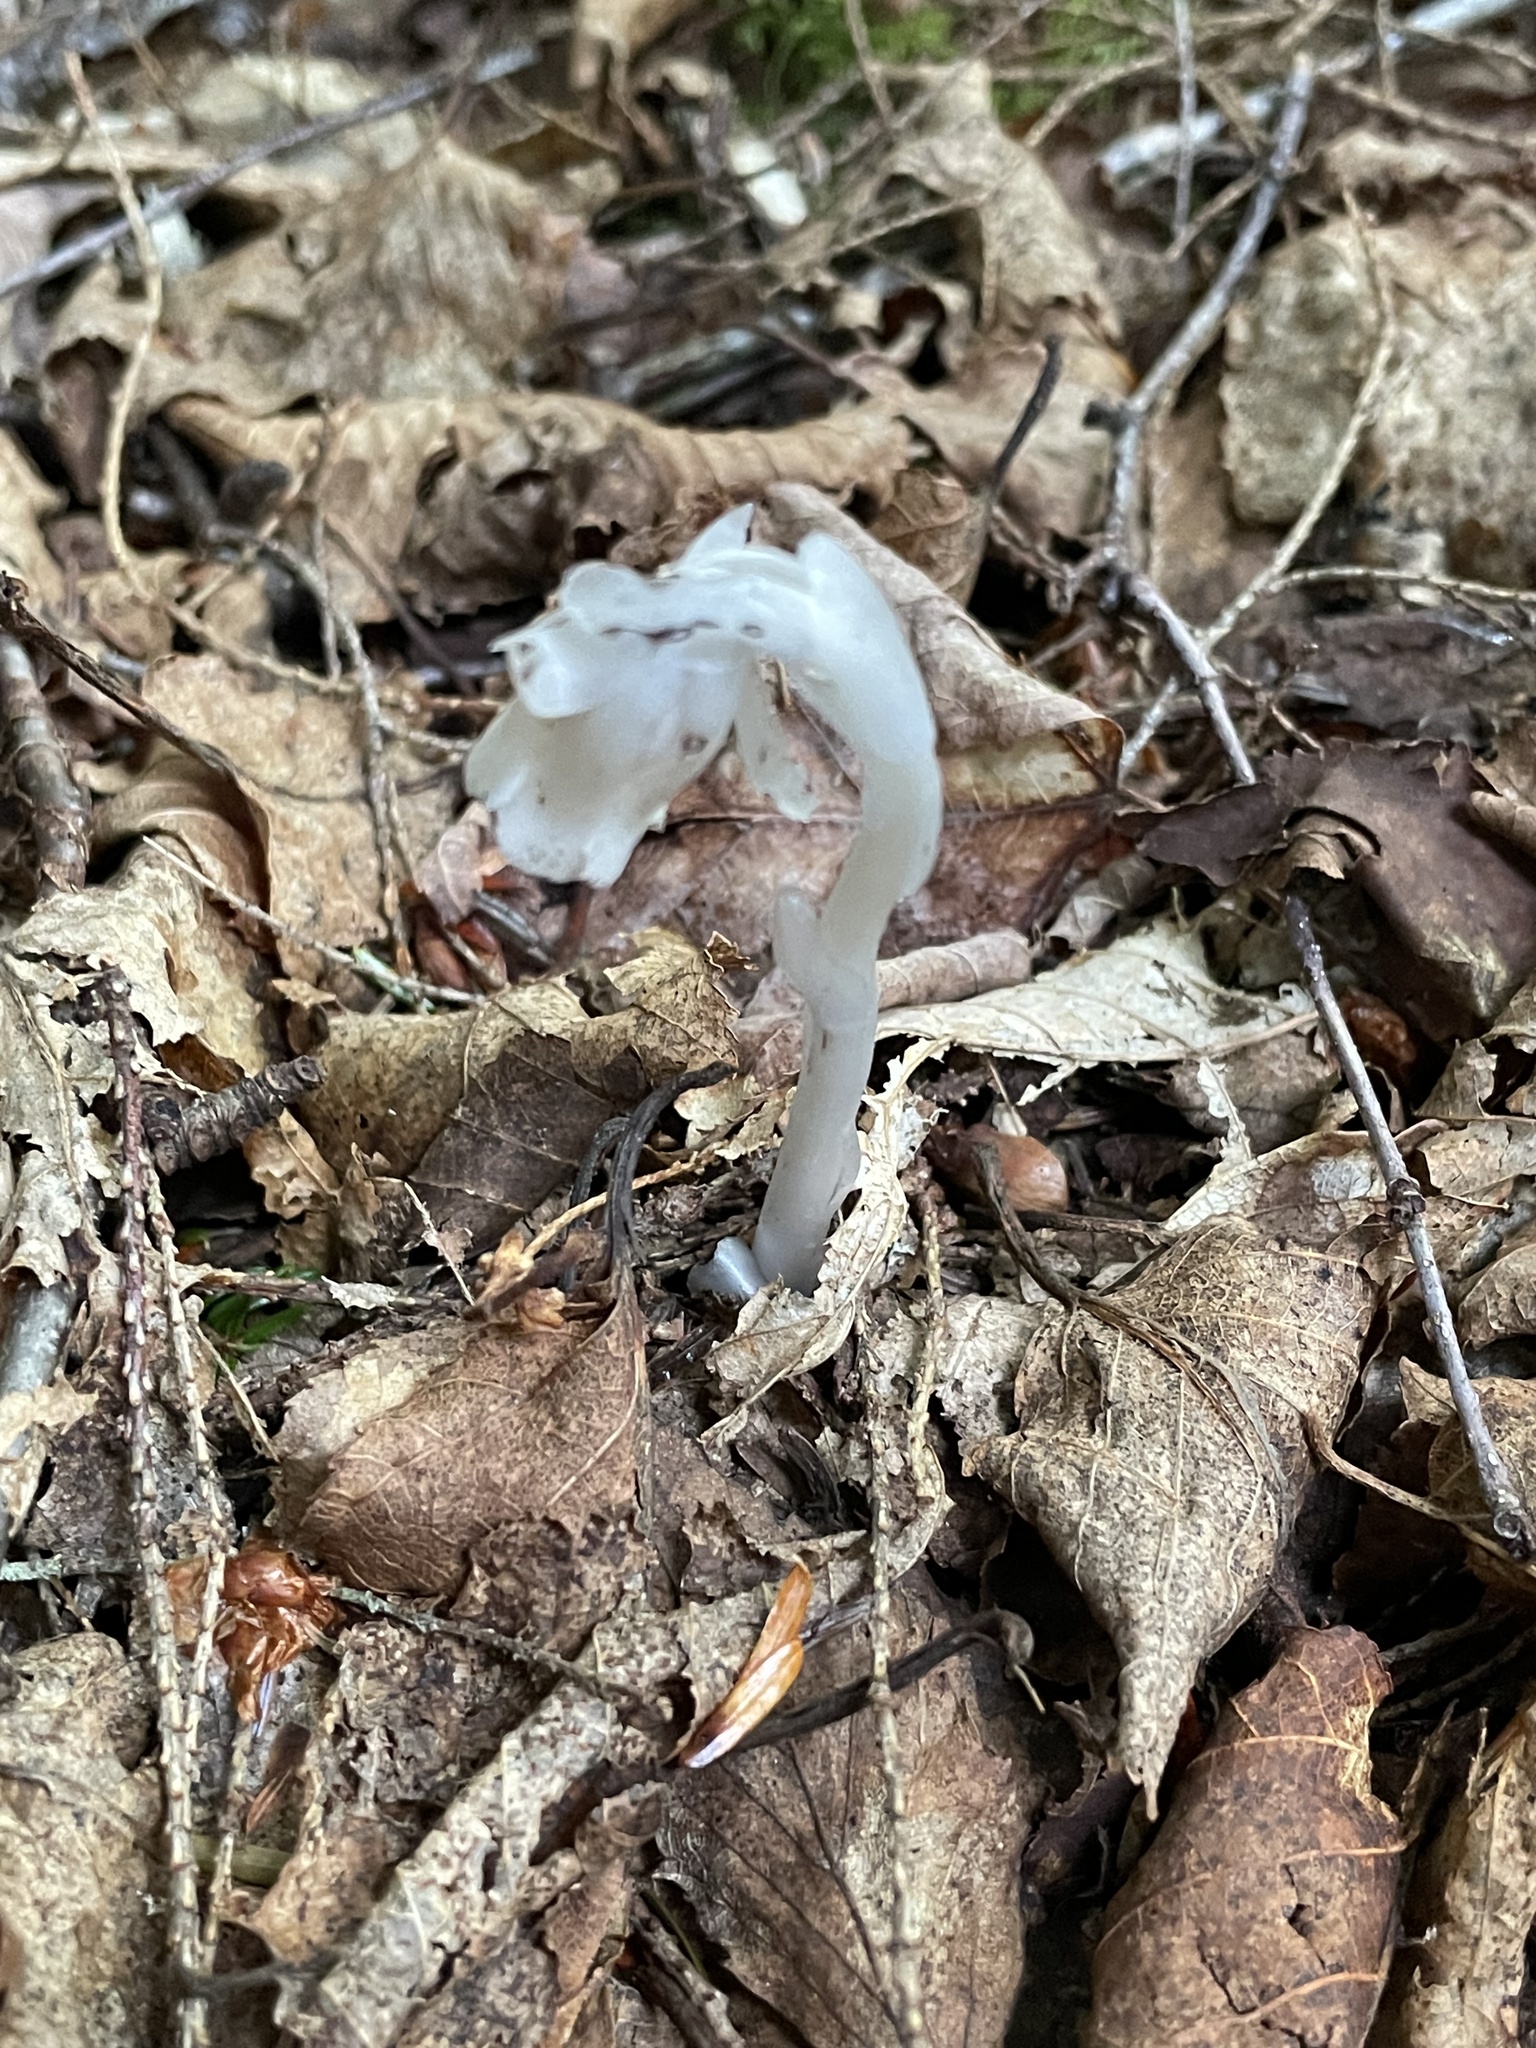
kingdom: Plantae
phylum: Tracheophyta
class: Magnoliopsida
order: Ericales
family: Ericaceae
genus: Monotropa
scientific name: Monotropa uniflora
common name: Convulsion root
